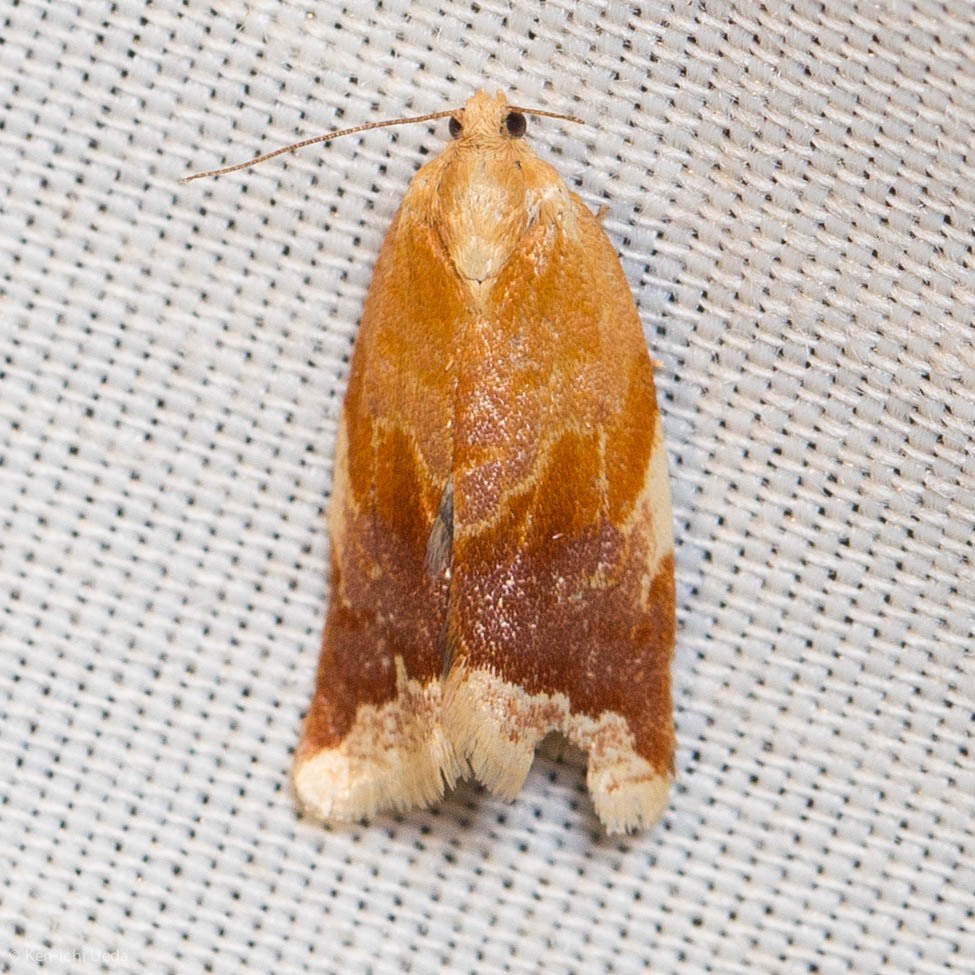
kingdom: Animalia
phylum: Arthropoda
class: Insecta
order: Lepidoptera
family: Tortricidae
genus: Clepsis
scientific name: Clepsis persicana
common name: White triangle tortrix
